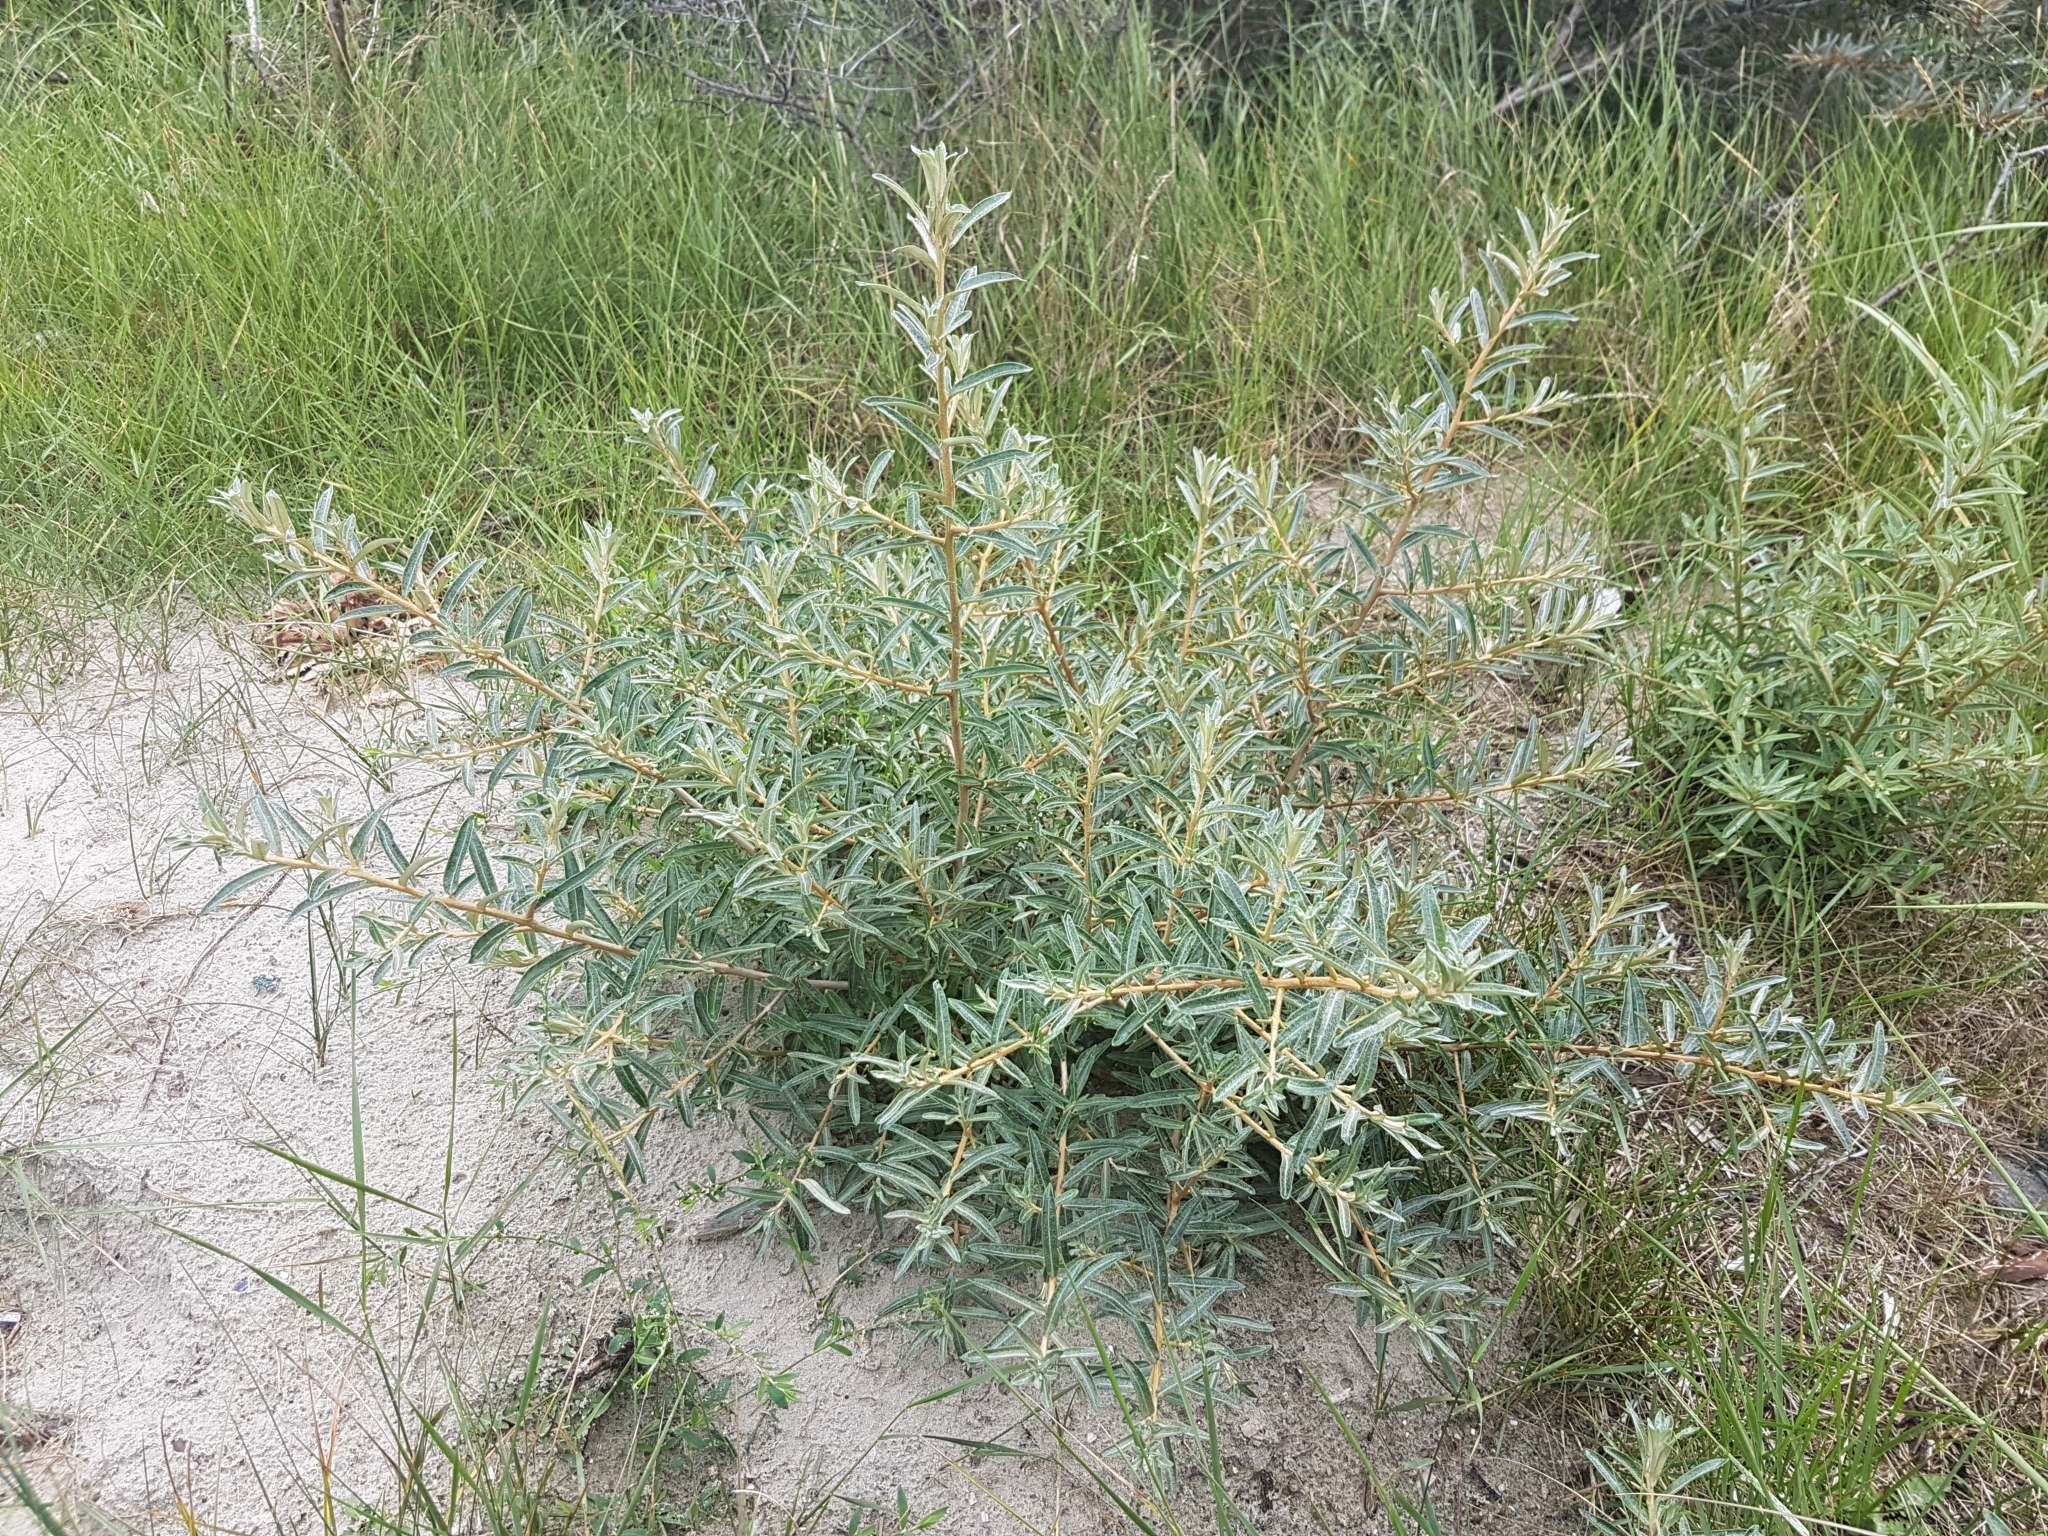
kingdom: Plantae
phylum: Tracheophyta
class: Magnoliopsida
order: Rosales
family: Elaeagnaceae
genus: Hippophae
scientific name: Hippophae rhamnoides
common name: Sea-buckthorn
